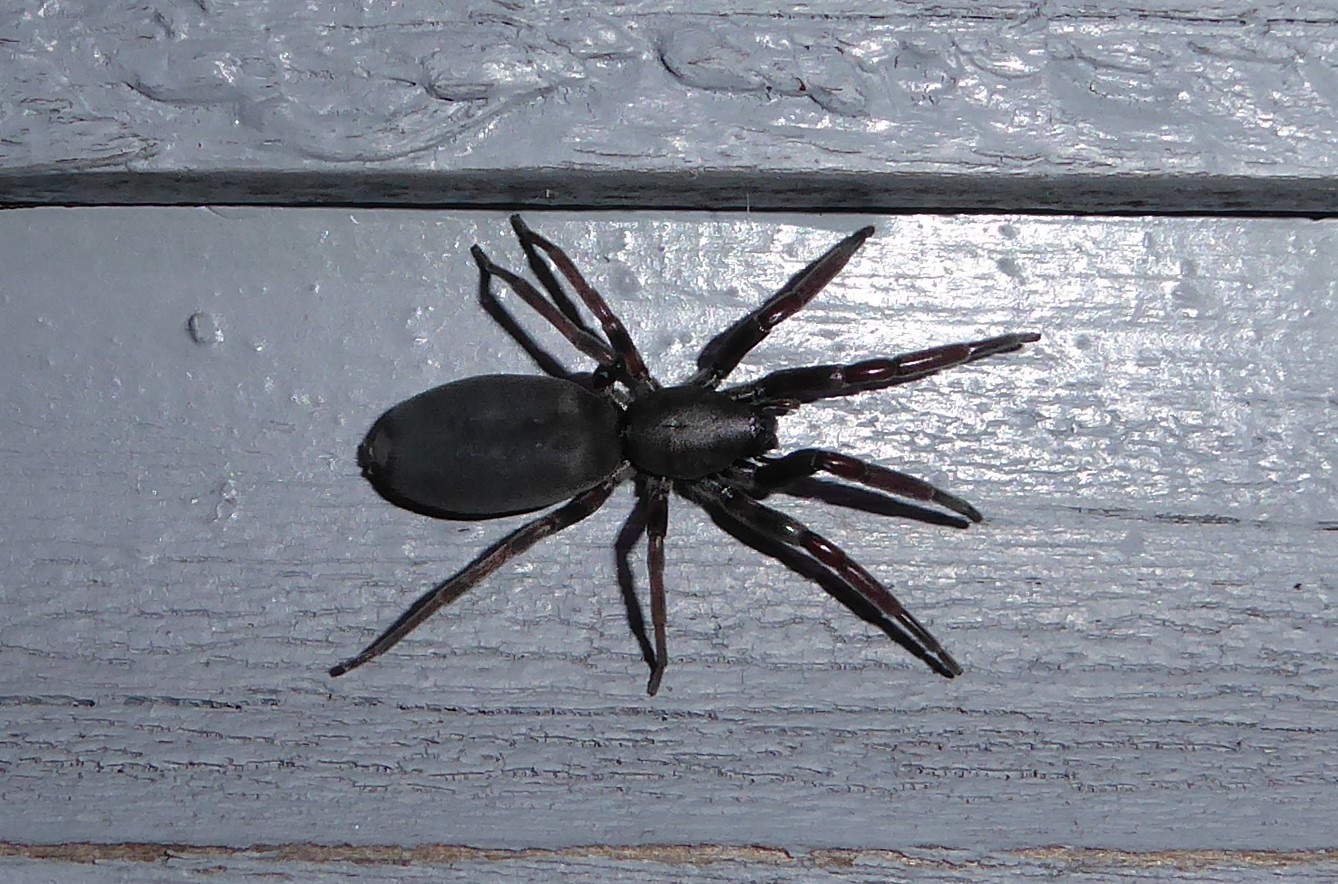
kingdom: Animalia
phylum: Arthropoda
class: Arachnida
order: Araneae
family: Lamponidae
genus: Lampona
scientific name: Lampona cylindrata
